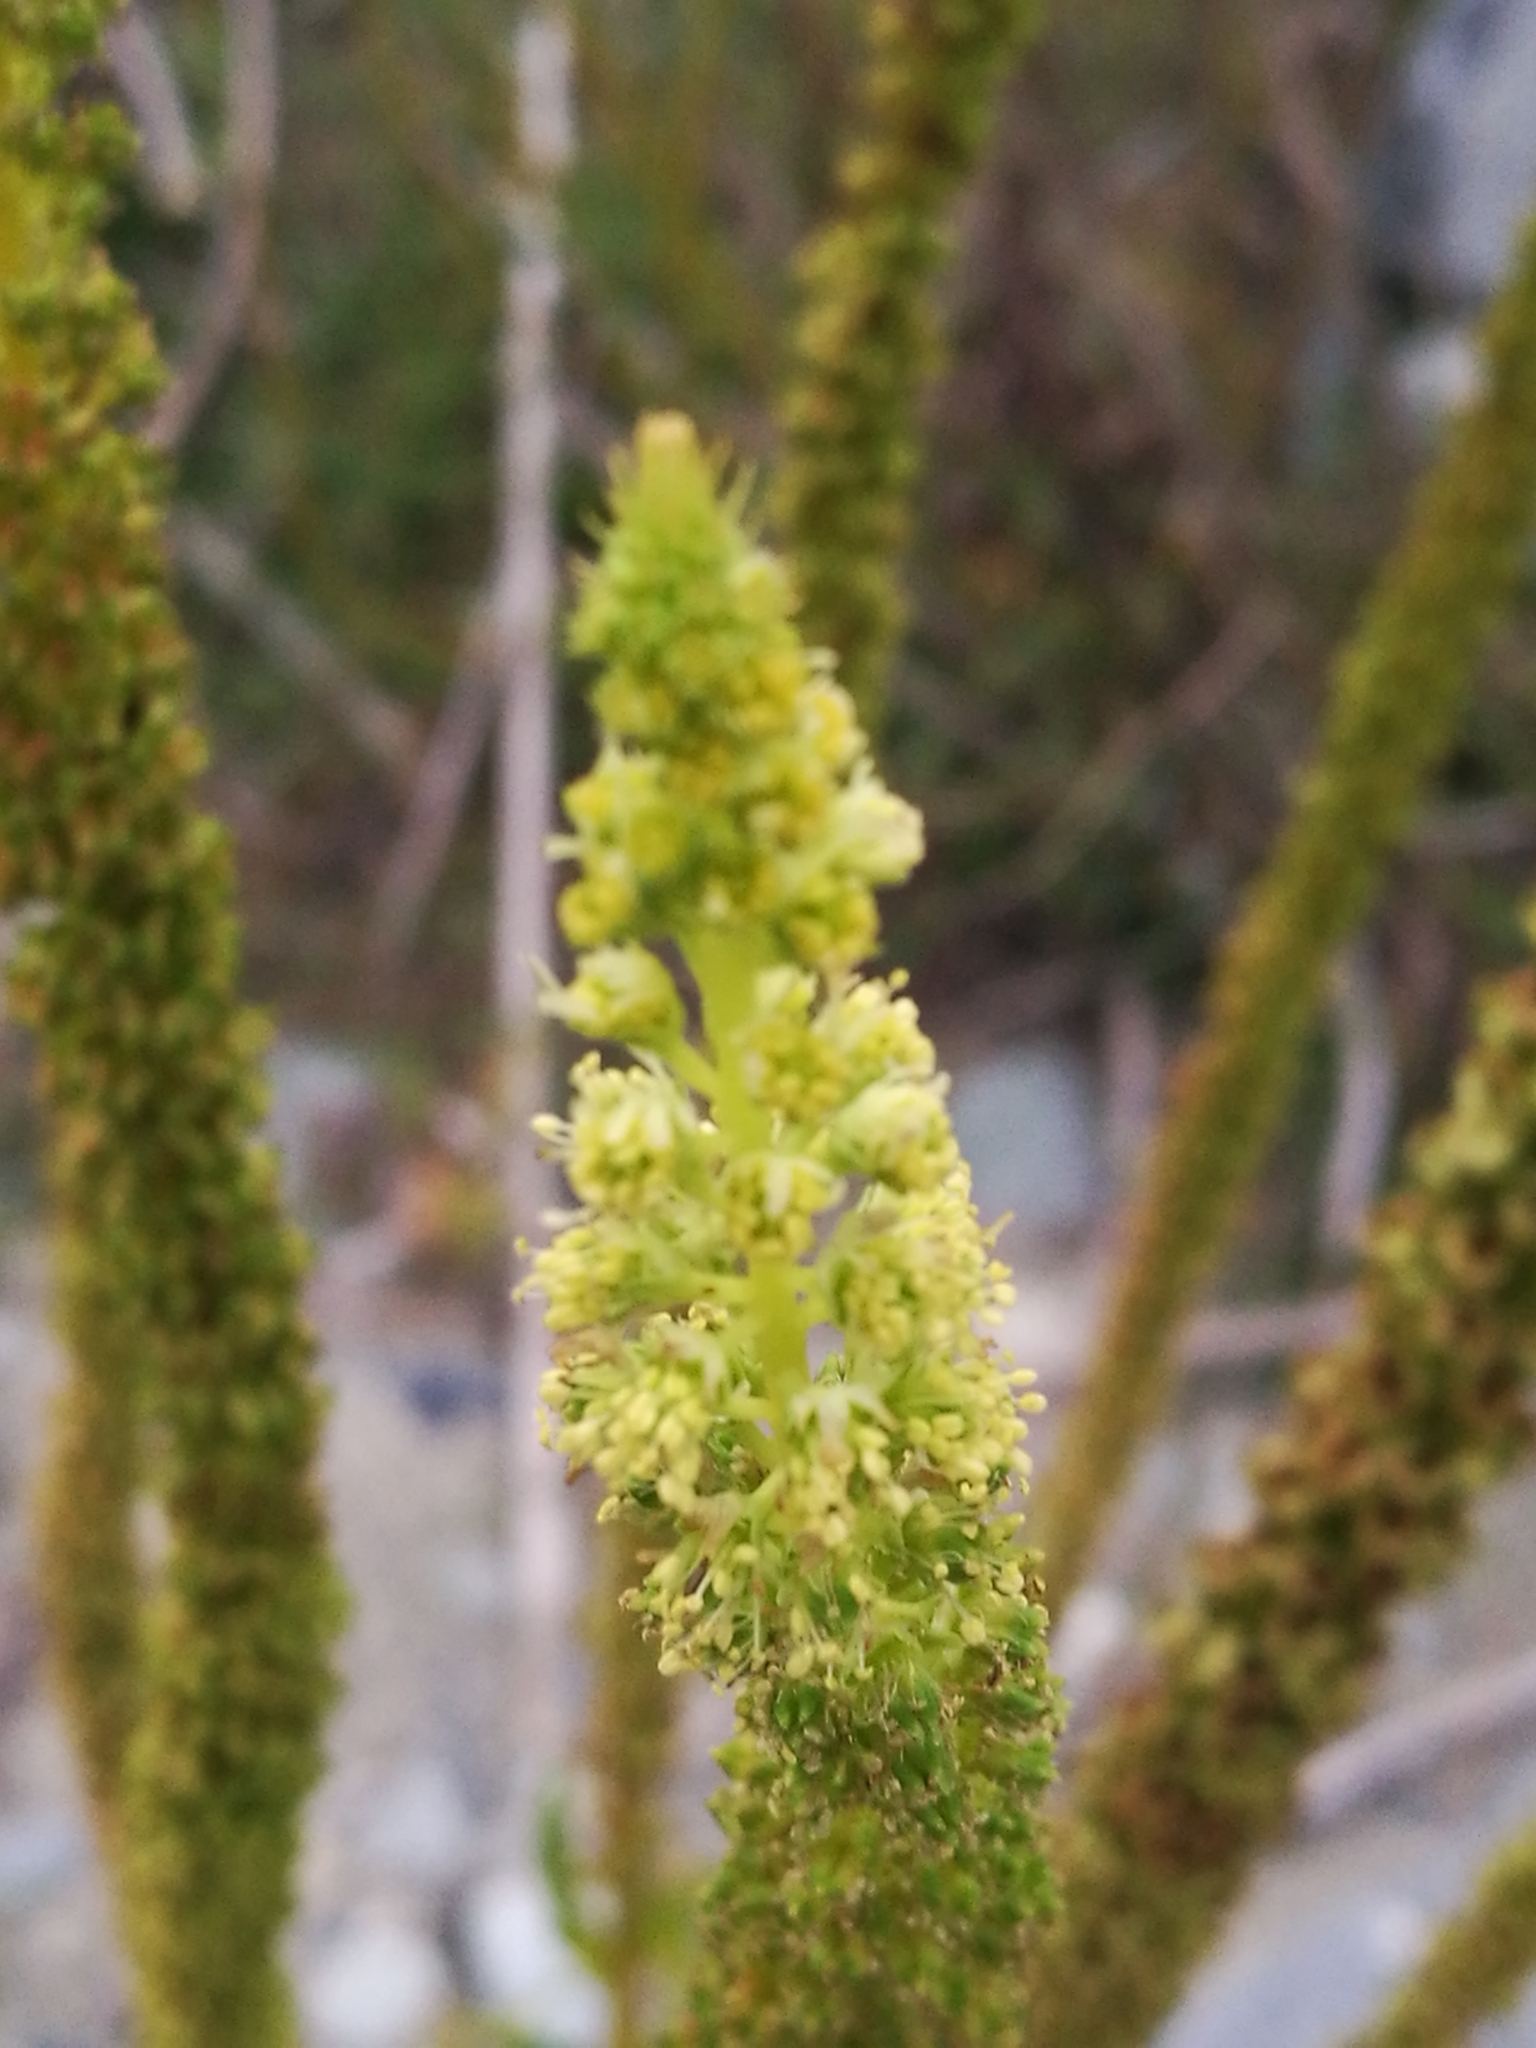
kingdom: Plantae
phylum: Tracheophyta
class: Magnoliopsida
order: Brassicales
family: Resedaceae
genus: Reseda
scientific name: Reseda luteola
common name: Weld
